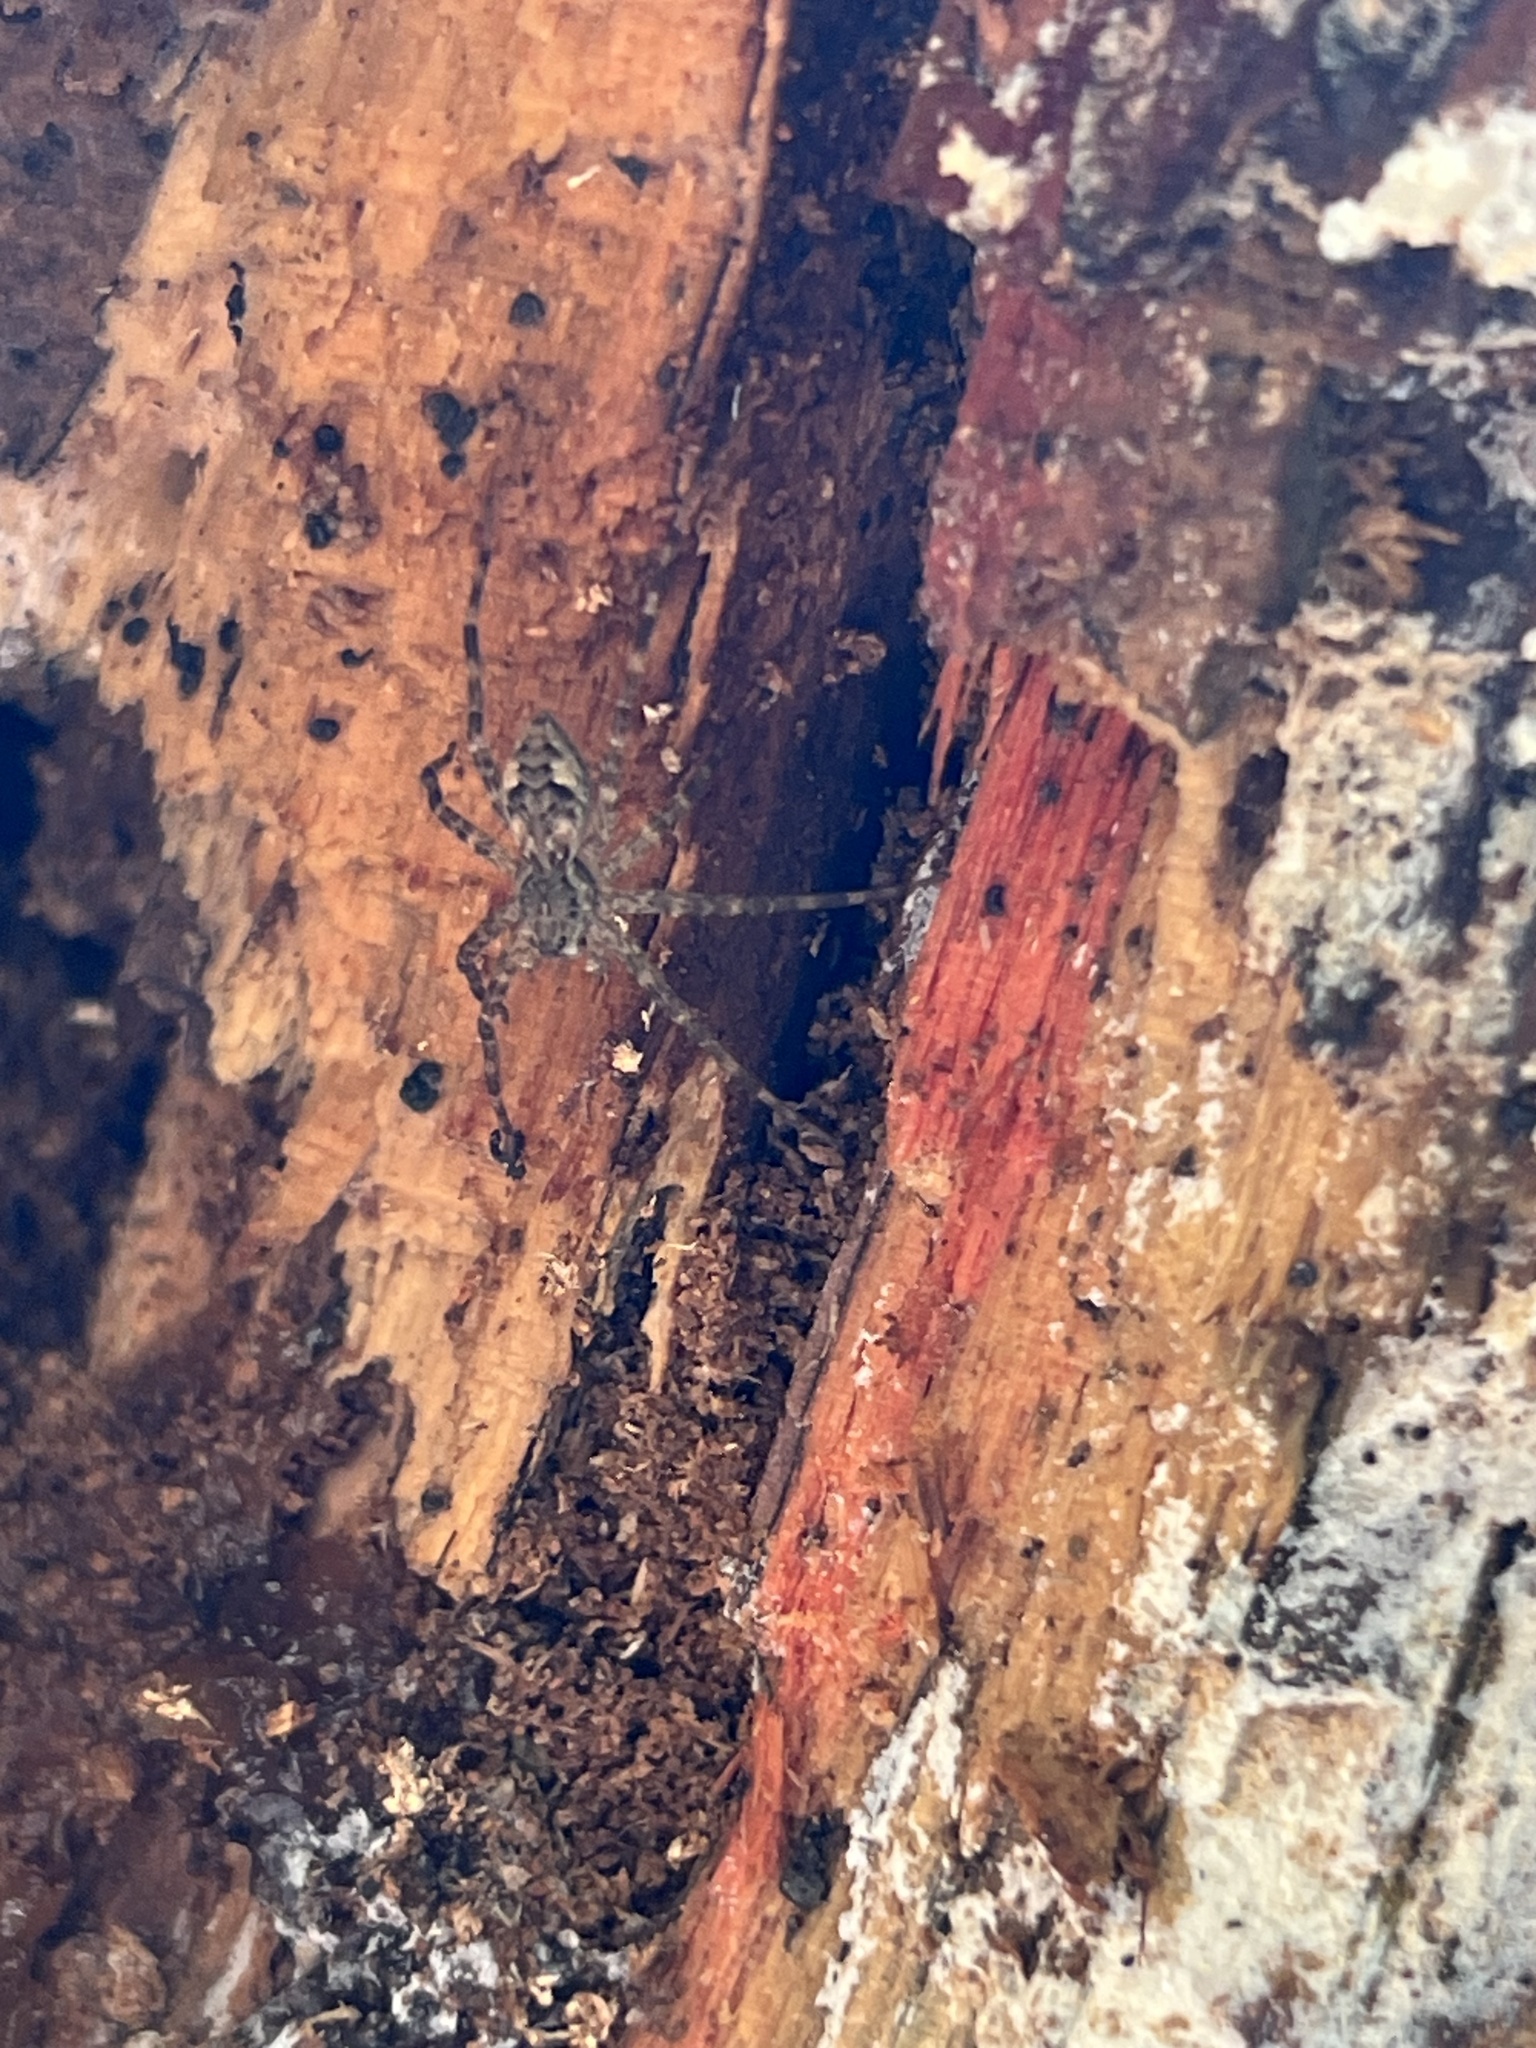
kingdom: Animalia
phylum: Arthropoda
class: Arachnida
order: Araneae
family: Pisauridae
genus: Dolomedes
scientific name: Dolomedes tenebrosus
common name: Dark fishing spider
